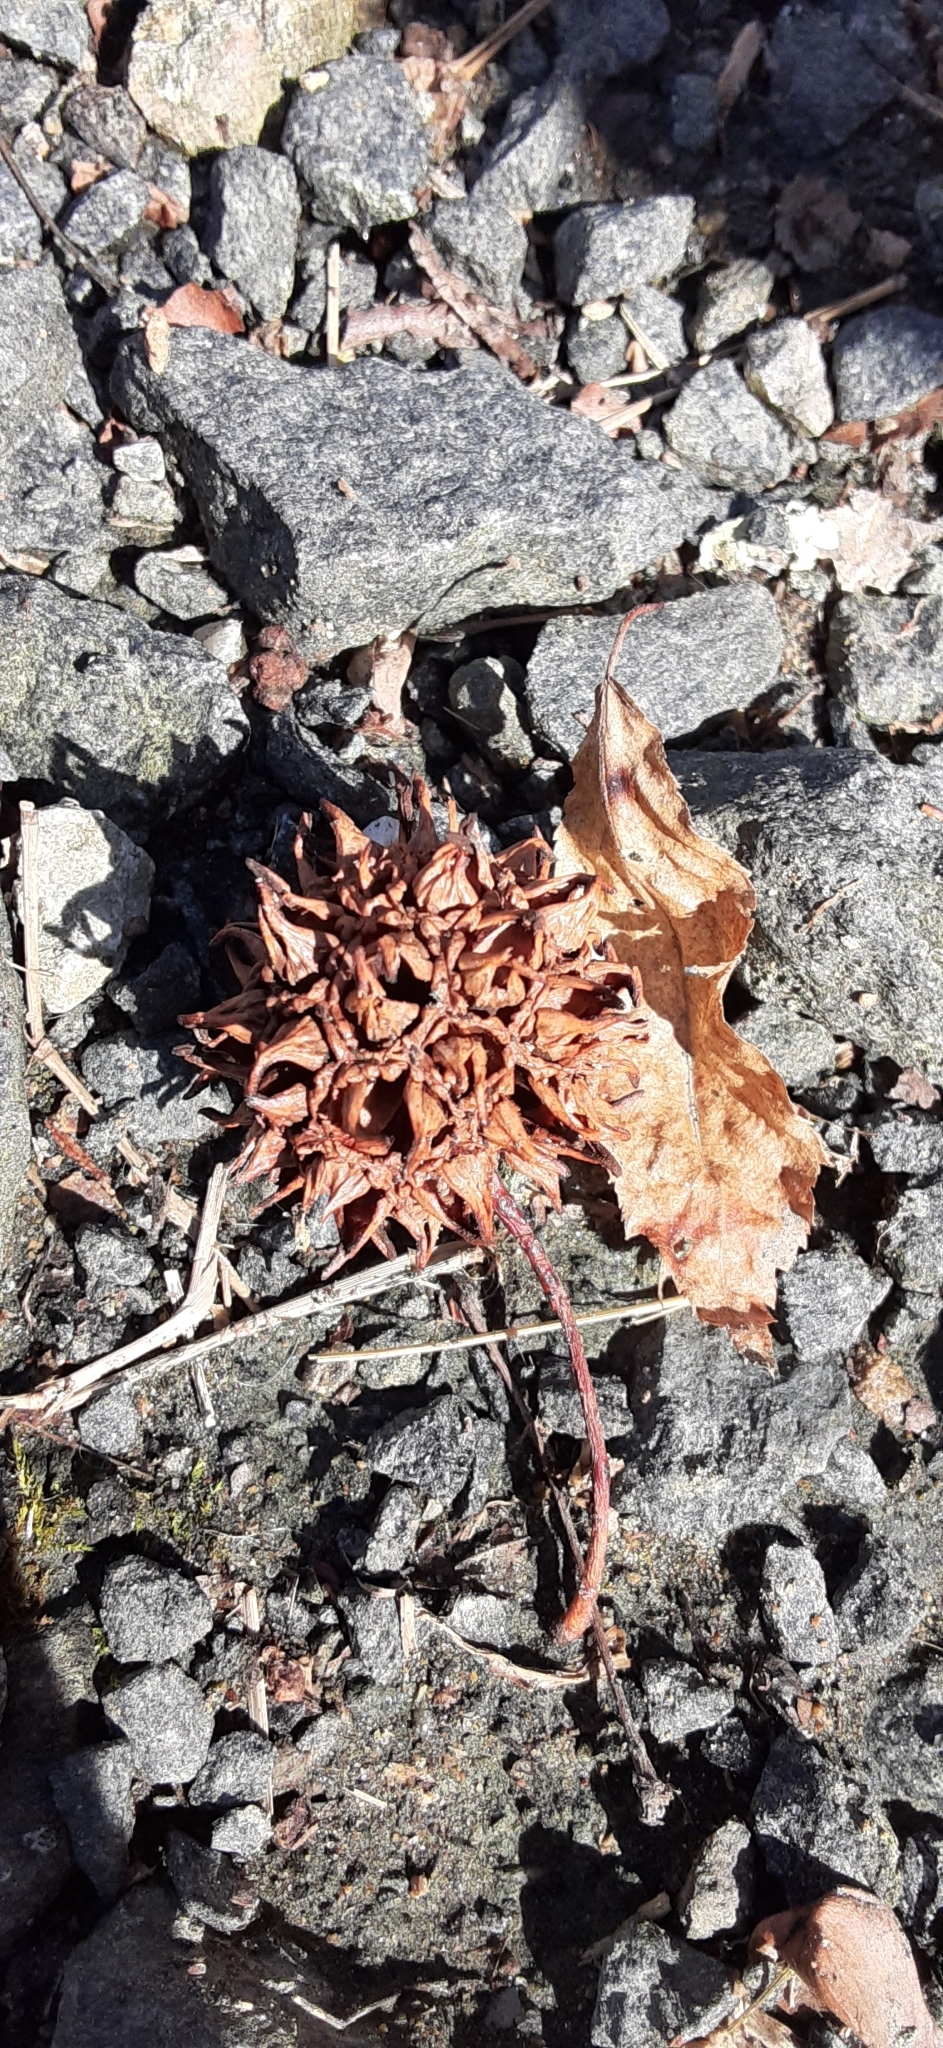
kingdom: Plantae
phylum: Tracheophyta
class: Magnoliopsida
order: Saxifragales
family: Altingiaceae
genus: Liquidambar
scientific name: Liquidambar styraciflua
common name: Sweet gum
